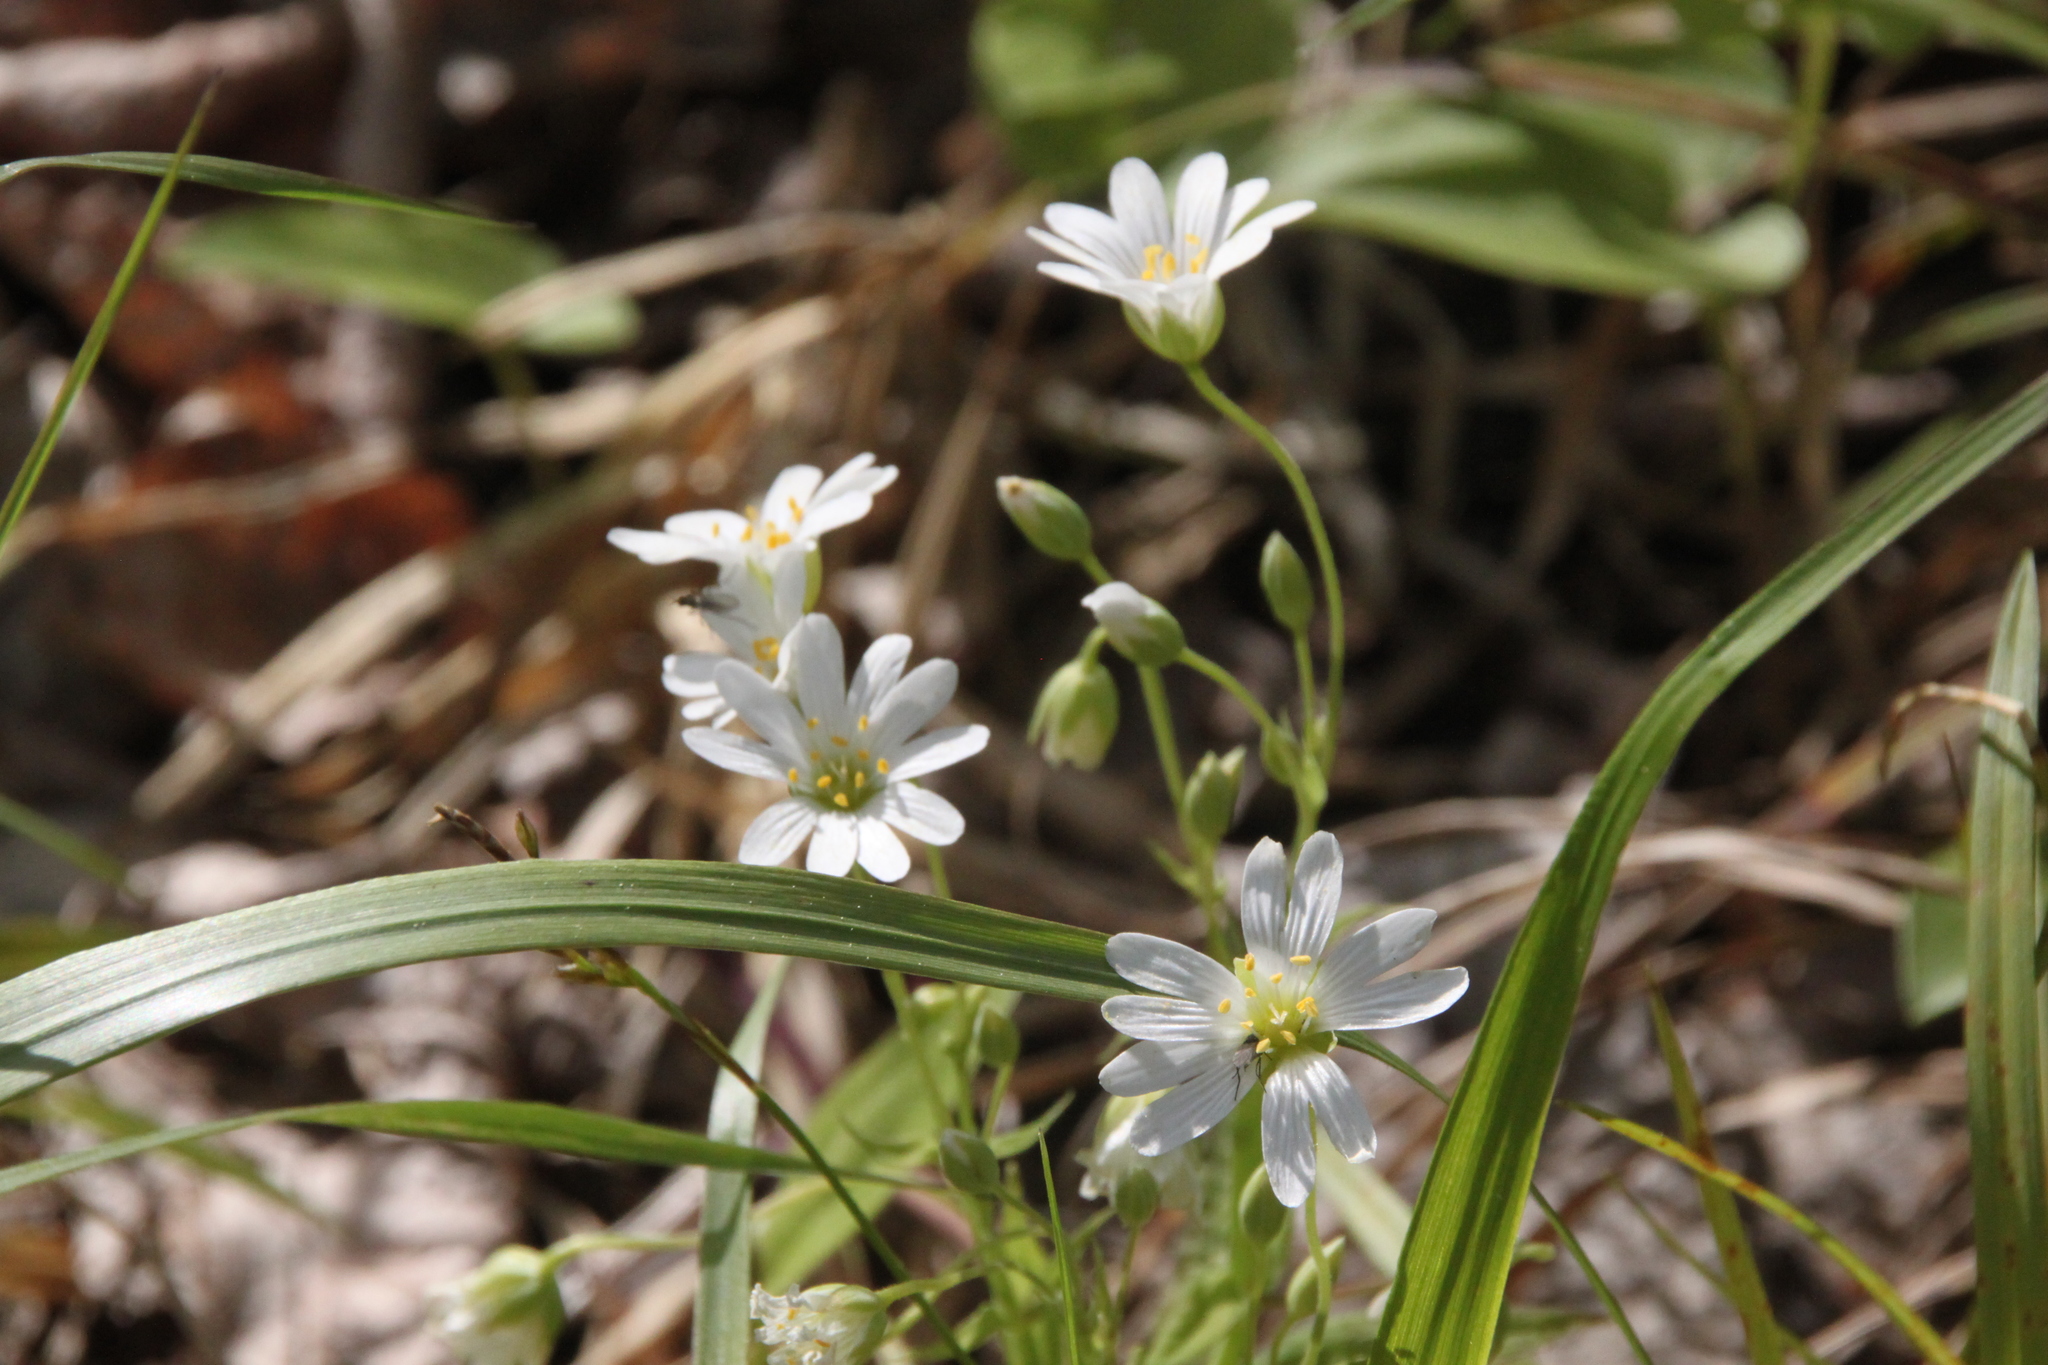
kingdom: Plantae
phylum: Tracheophyta
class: Magnoliopsida
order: Caryophyllales
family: Caryophyllaceae
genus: Rabelera
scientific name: Rabelera holostea
